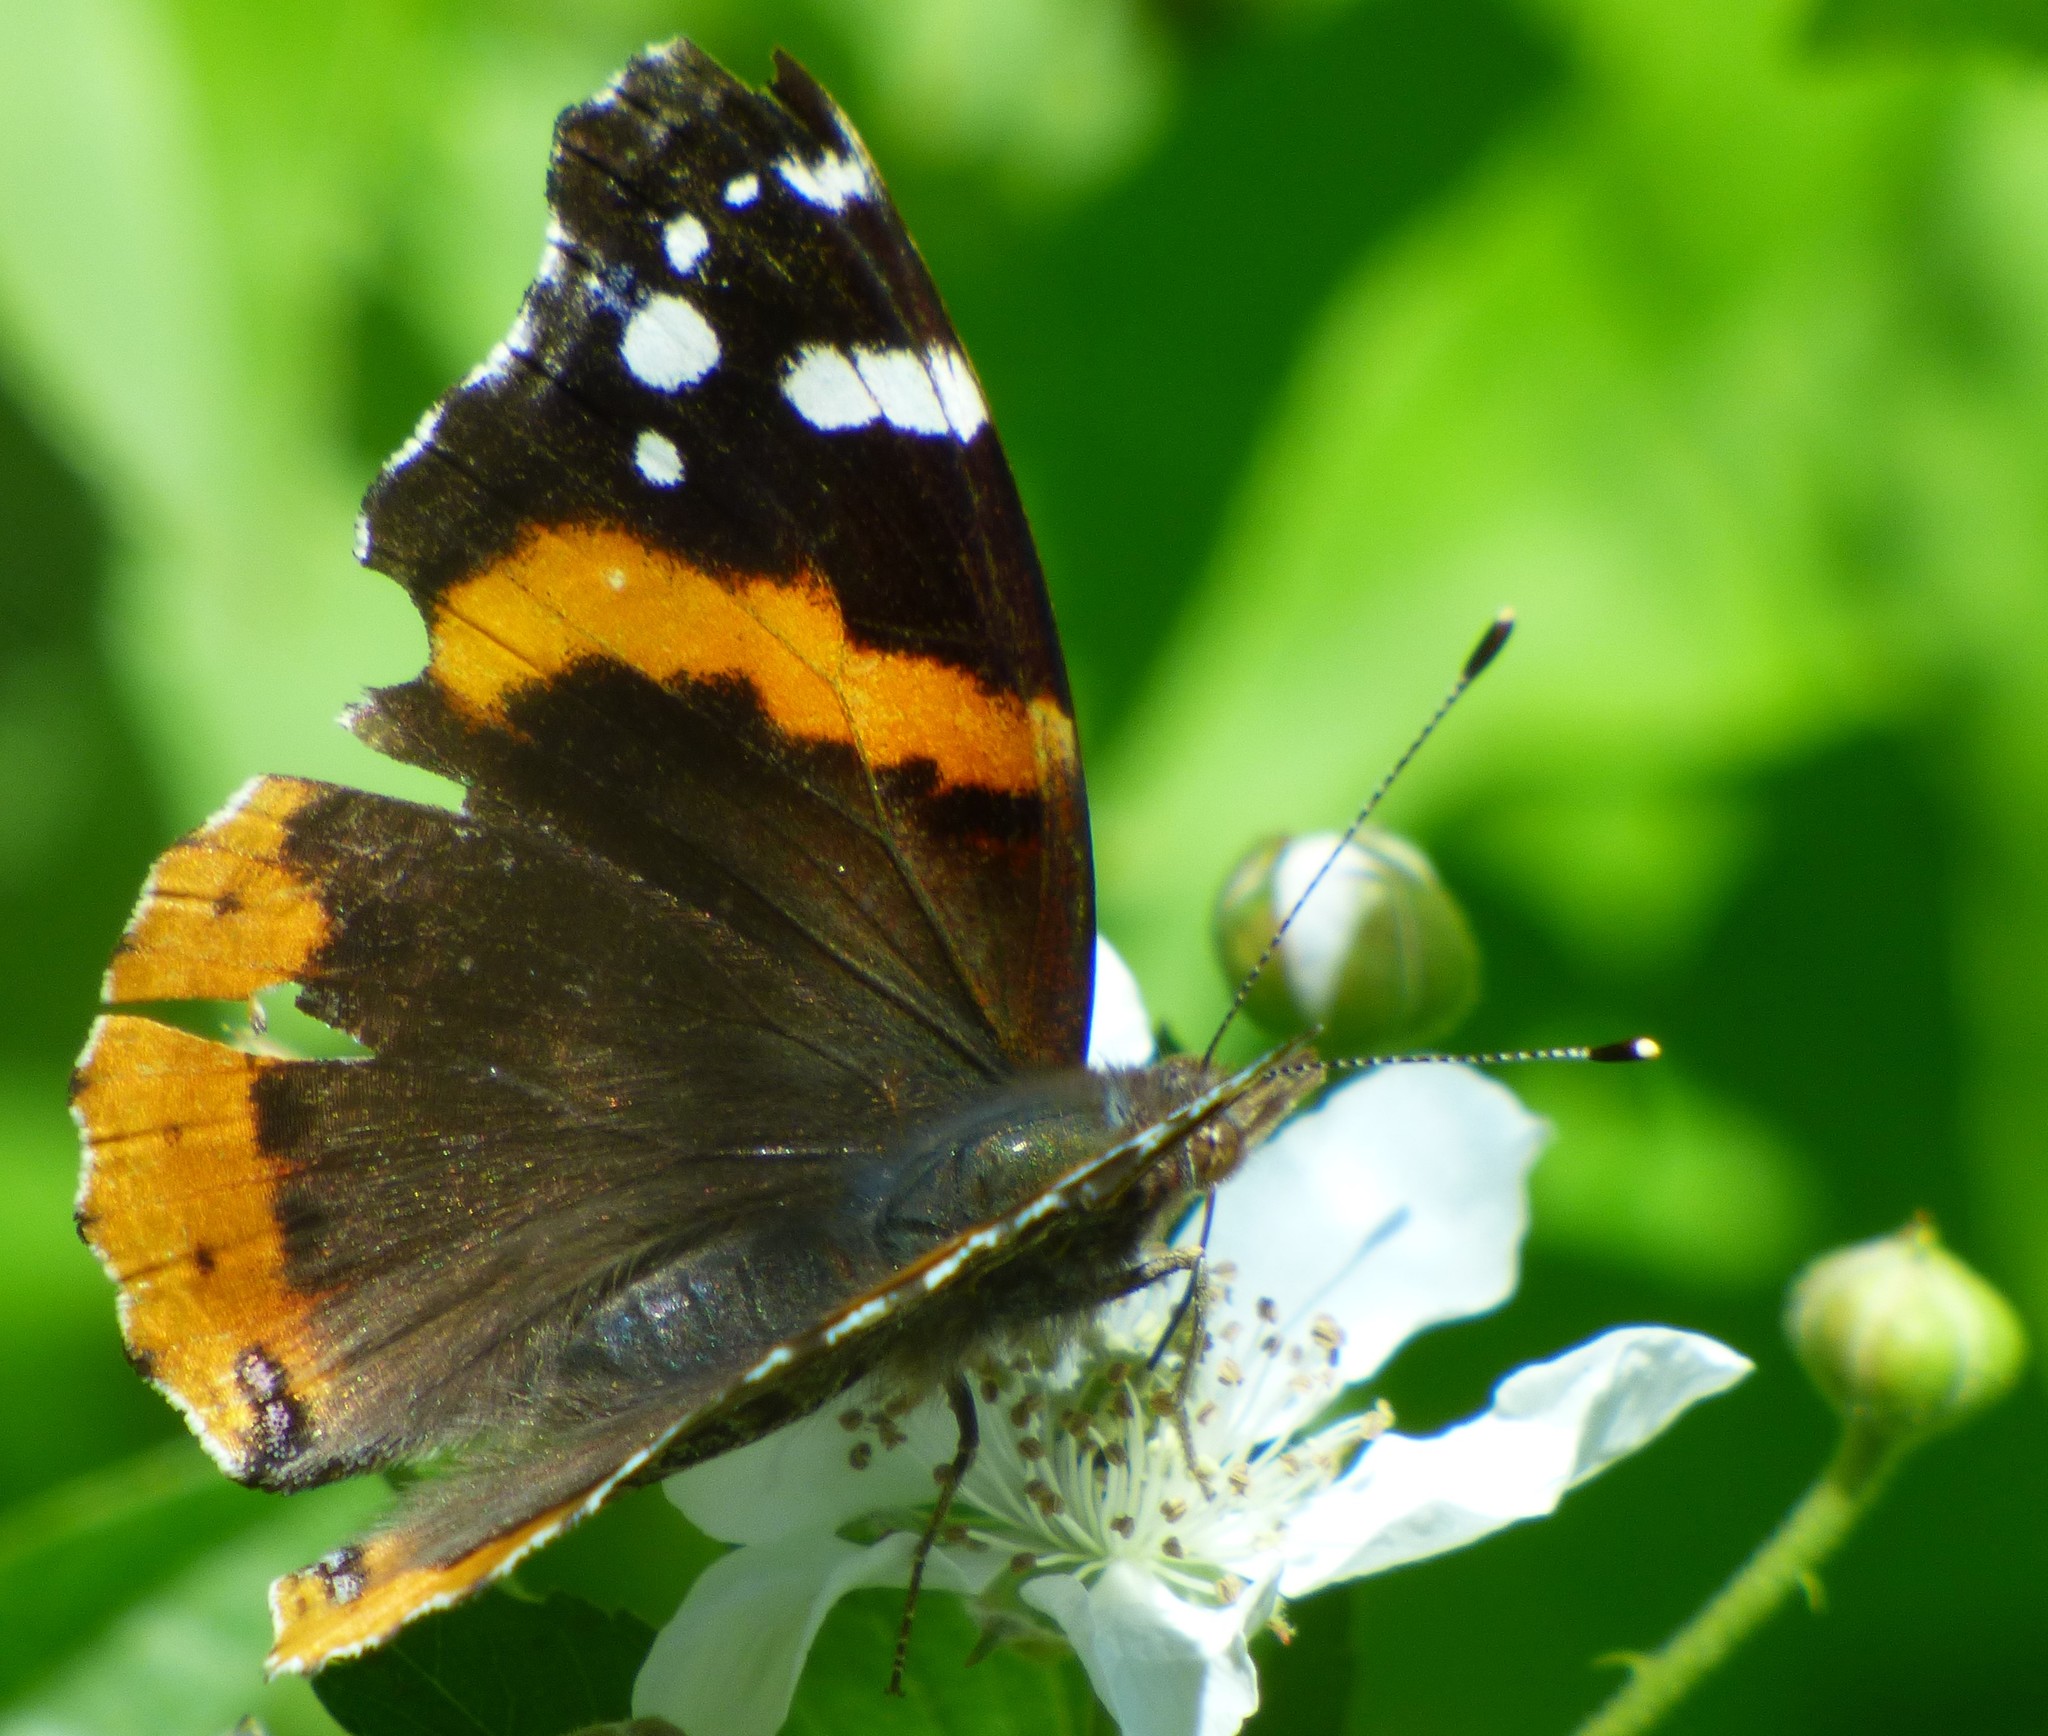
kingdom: Animalia
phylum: Arthropoda
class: Insecta
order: Lepidoptera
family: Nymphalidae
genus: Vanessa
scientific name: Vanessa atalanta
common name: Red admiral
